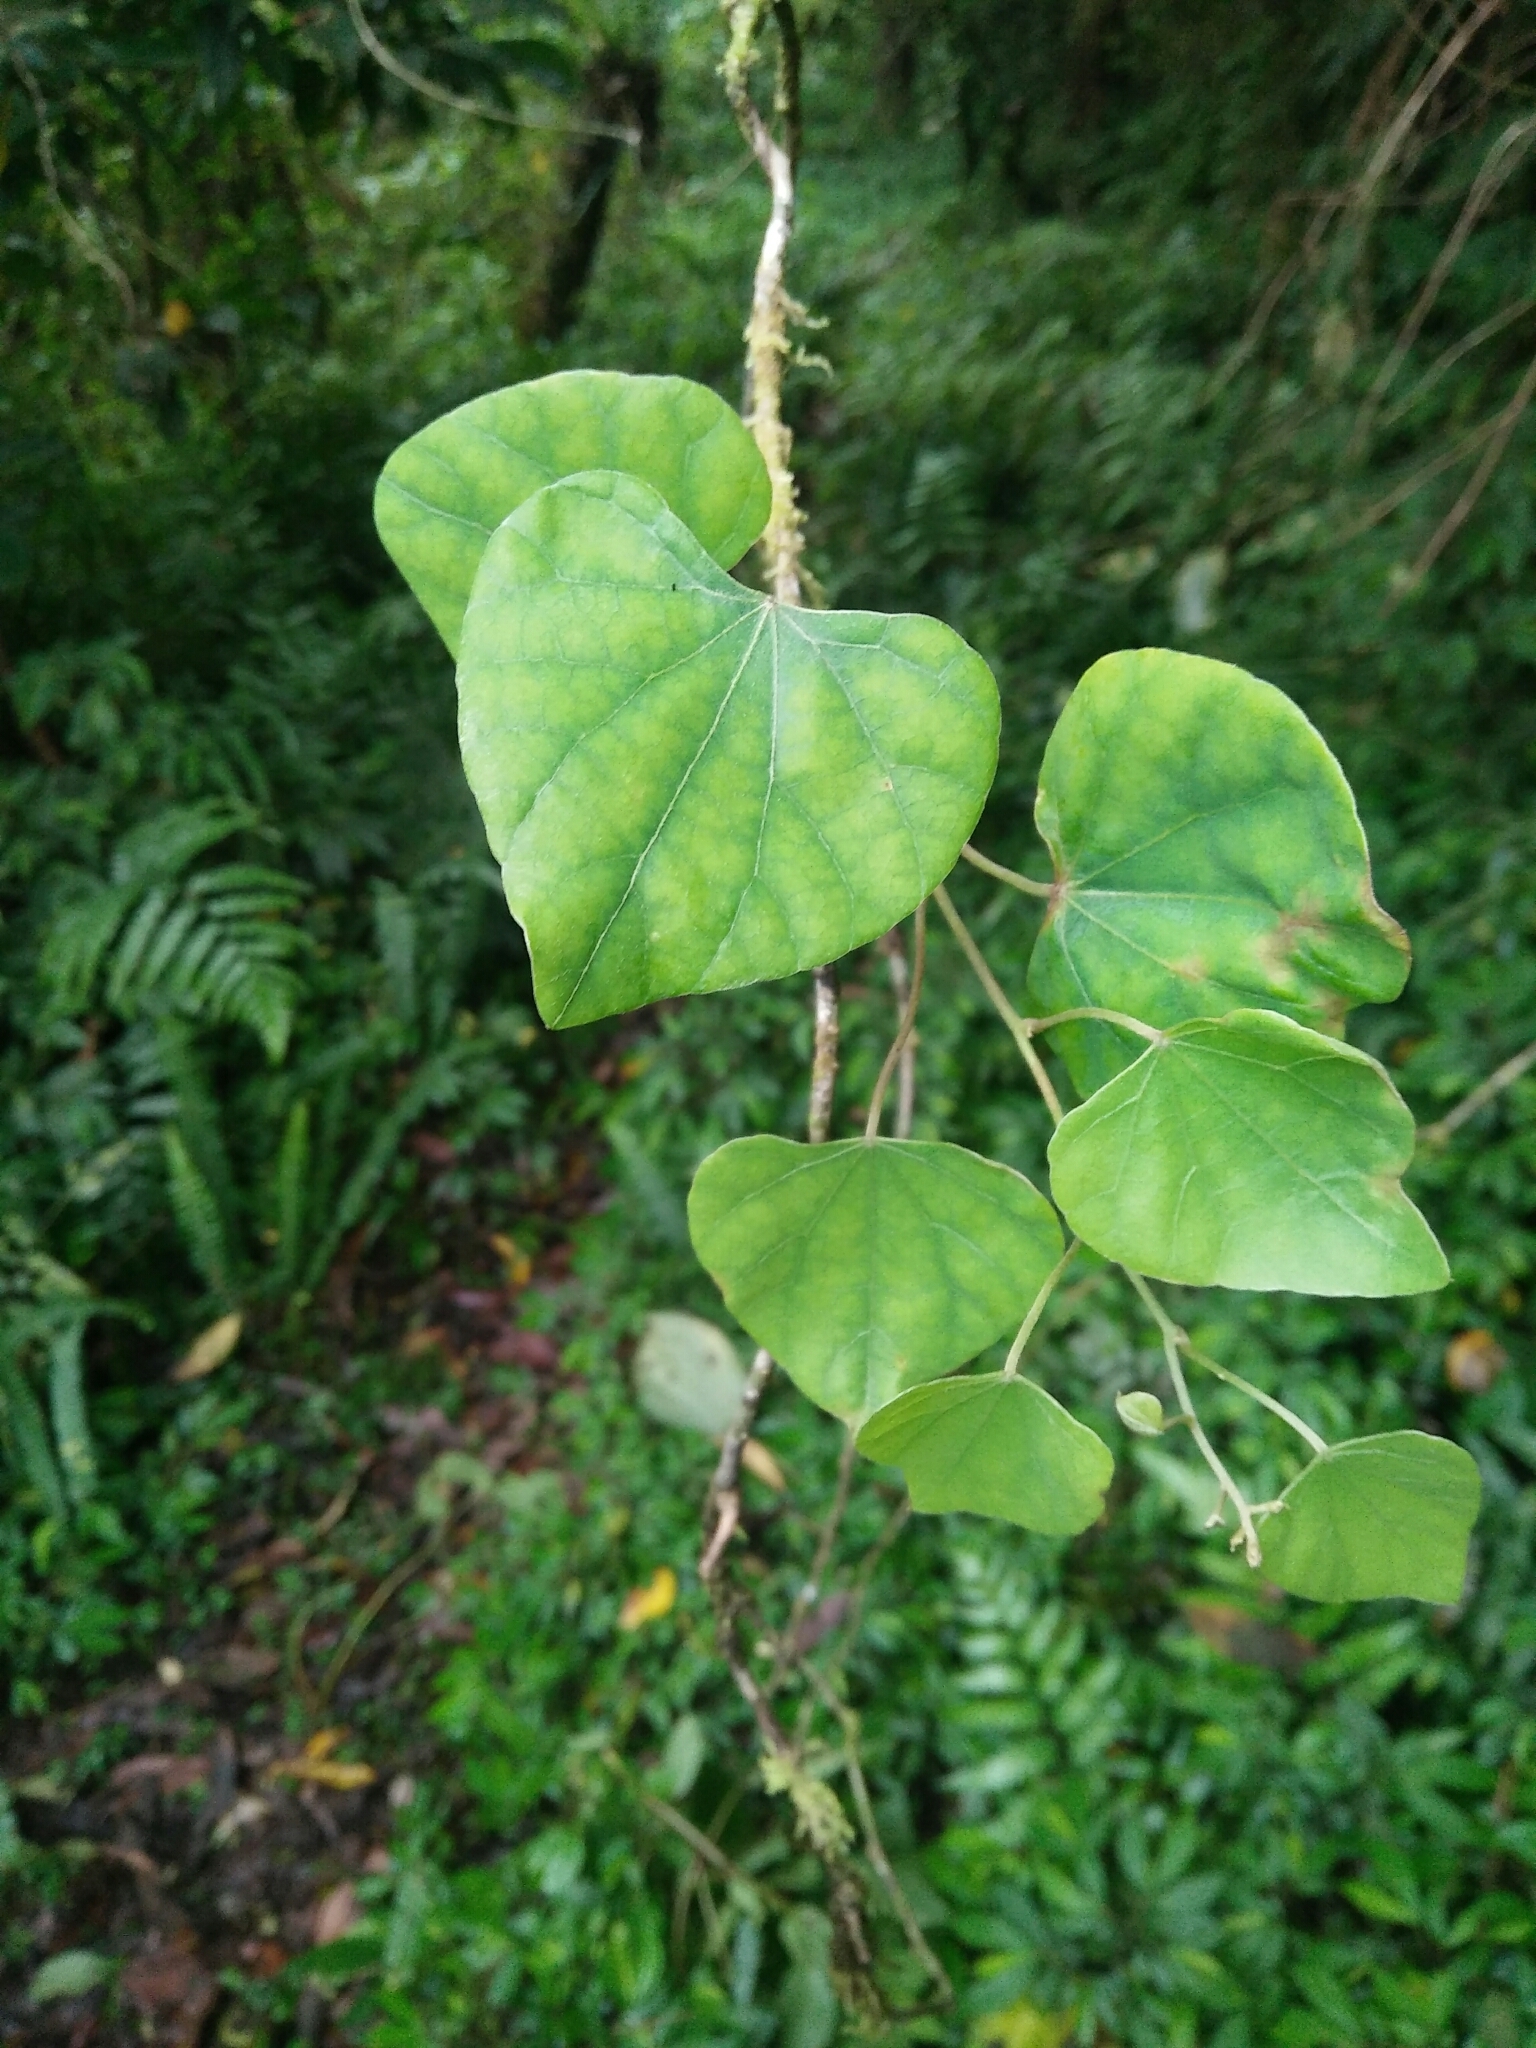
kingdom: Plantae
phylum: Tracheophyta
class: Magnoliopsida
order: Ranunculales
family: Menispermaceae
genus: Pericampylus
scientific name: Pericampylus glaucus
